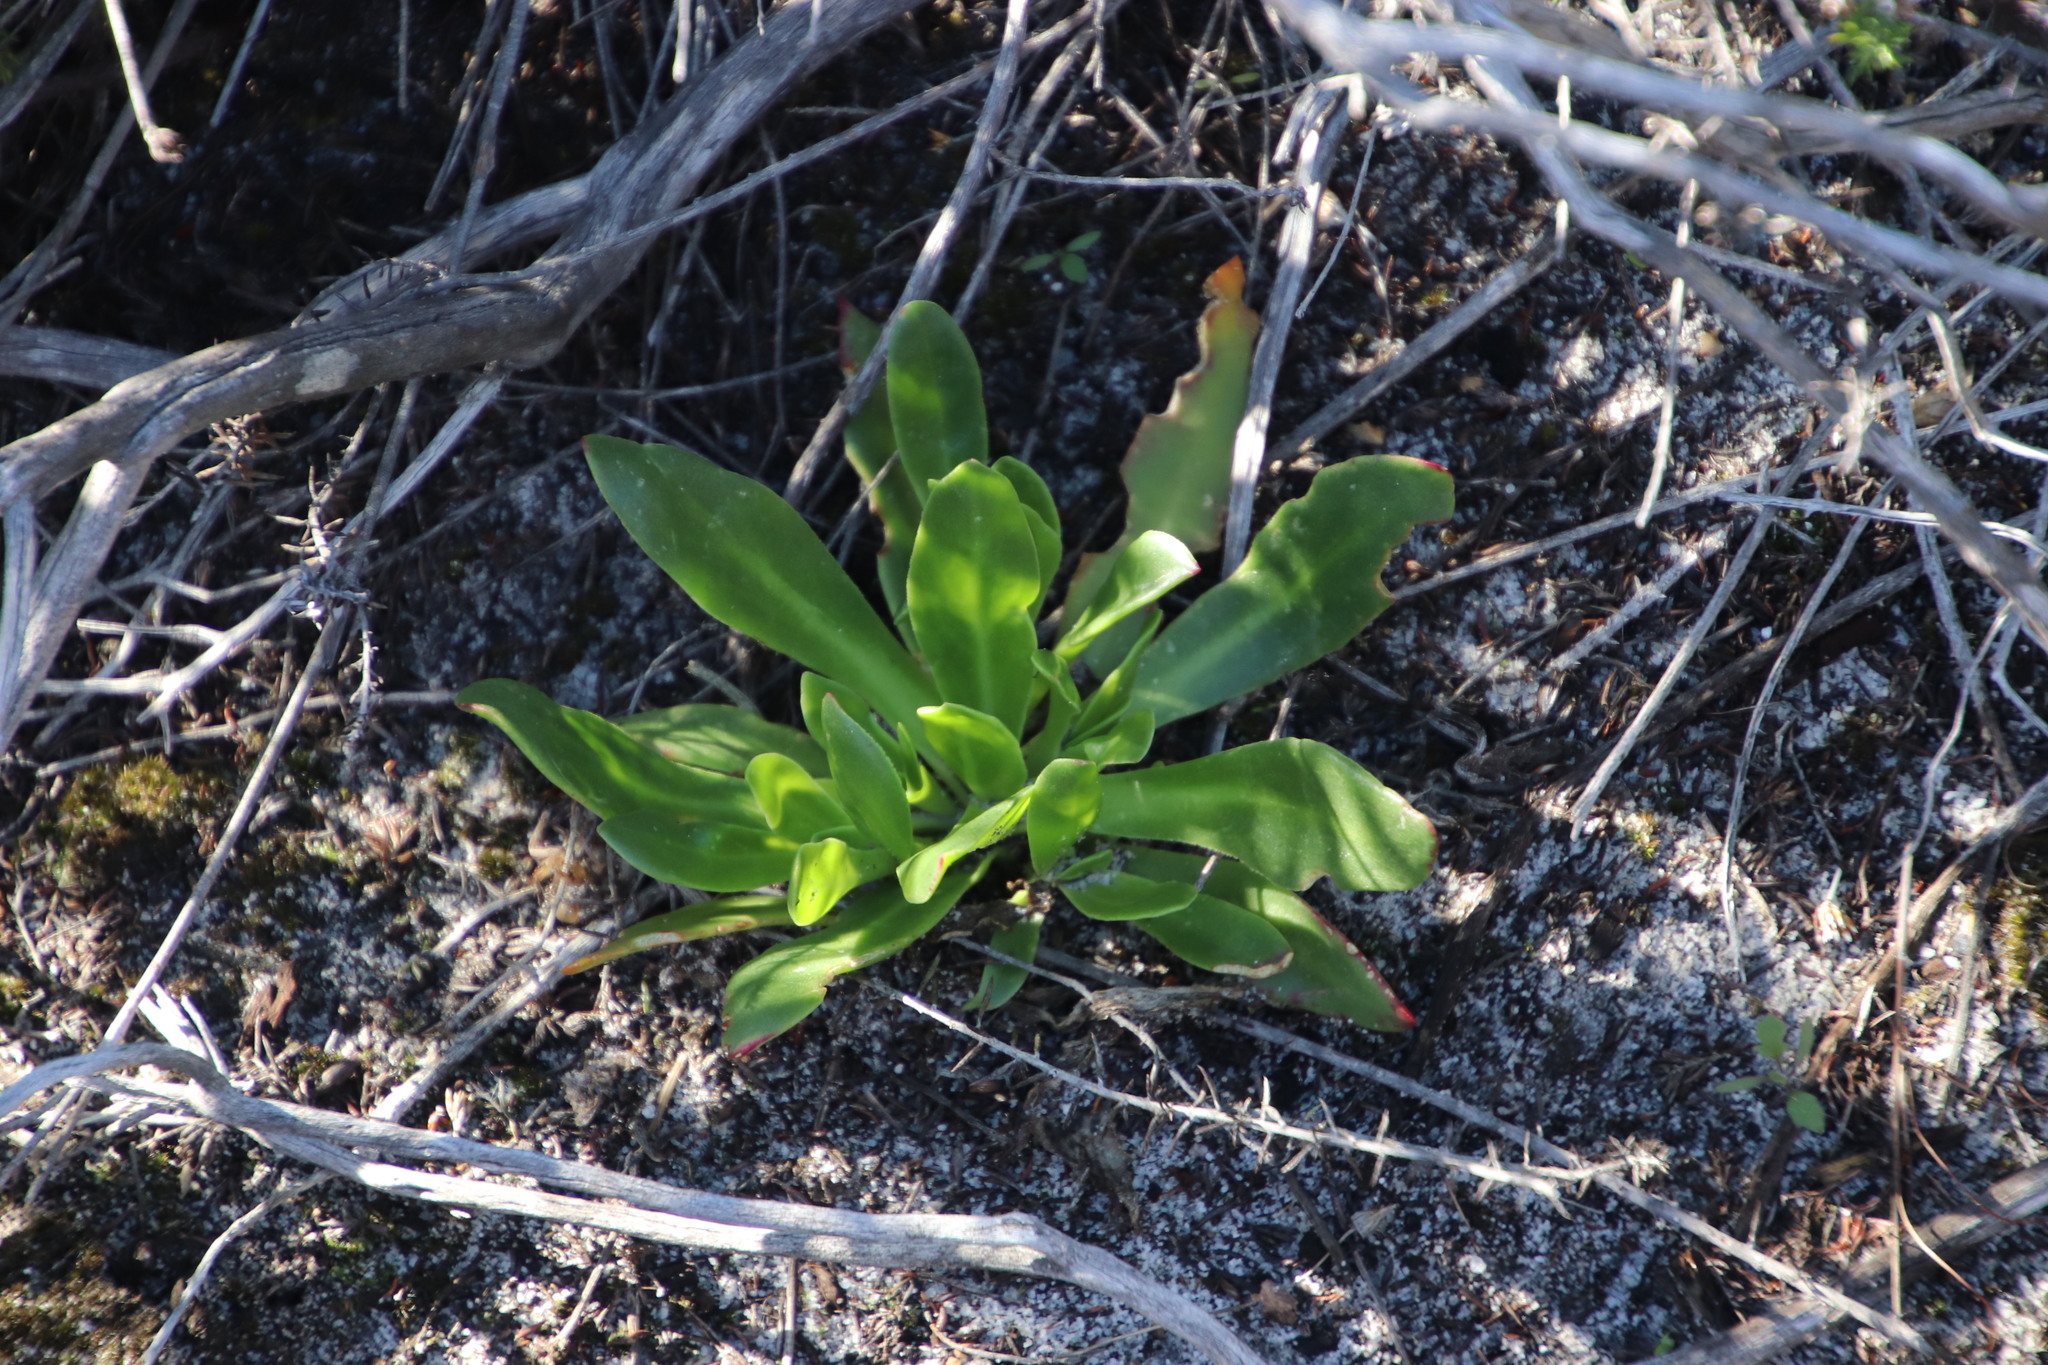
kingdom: Plantae
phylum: Tracheophyta
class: Magnoliopsida
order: Caryophyllales
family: Aizoaceae
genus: Skiatophytum
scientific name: Skiatophytum tripolium
